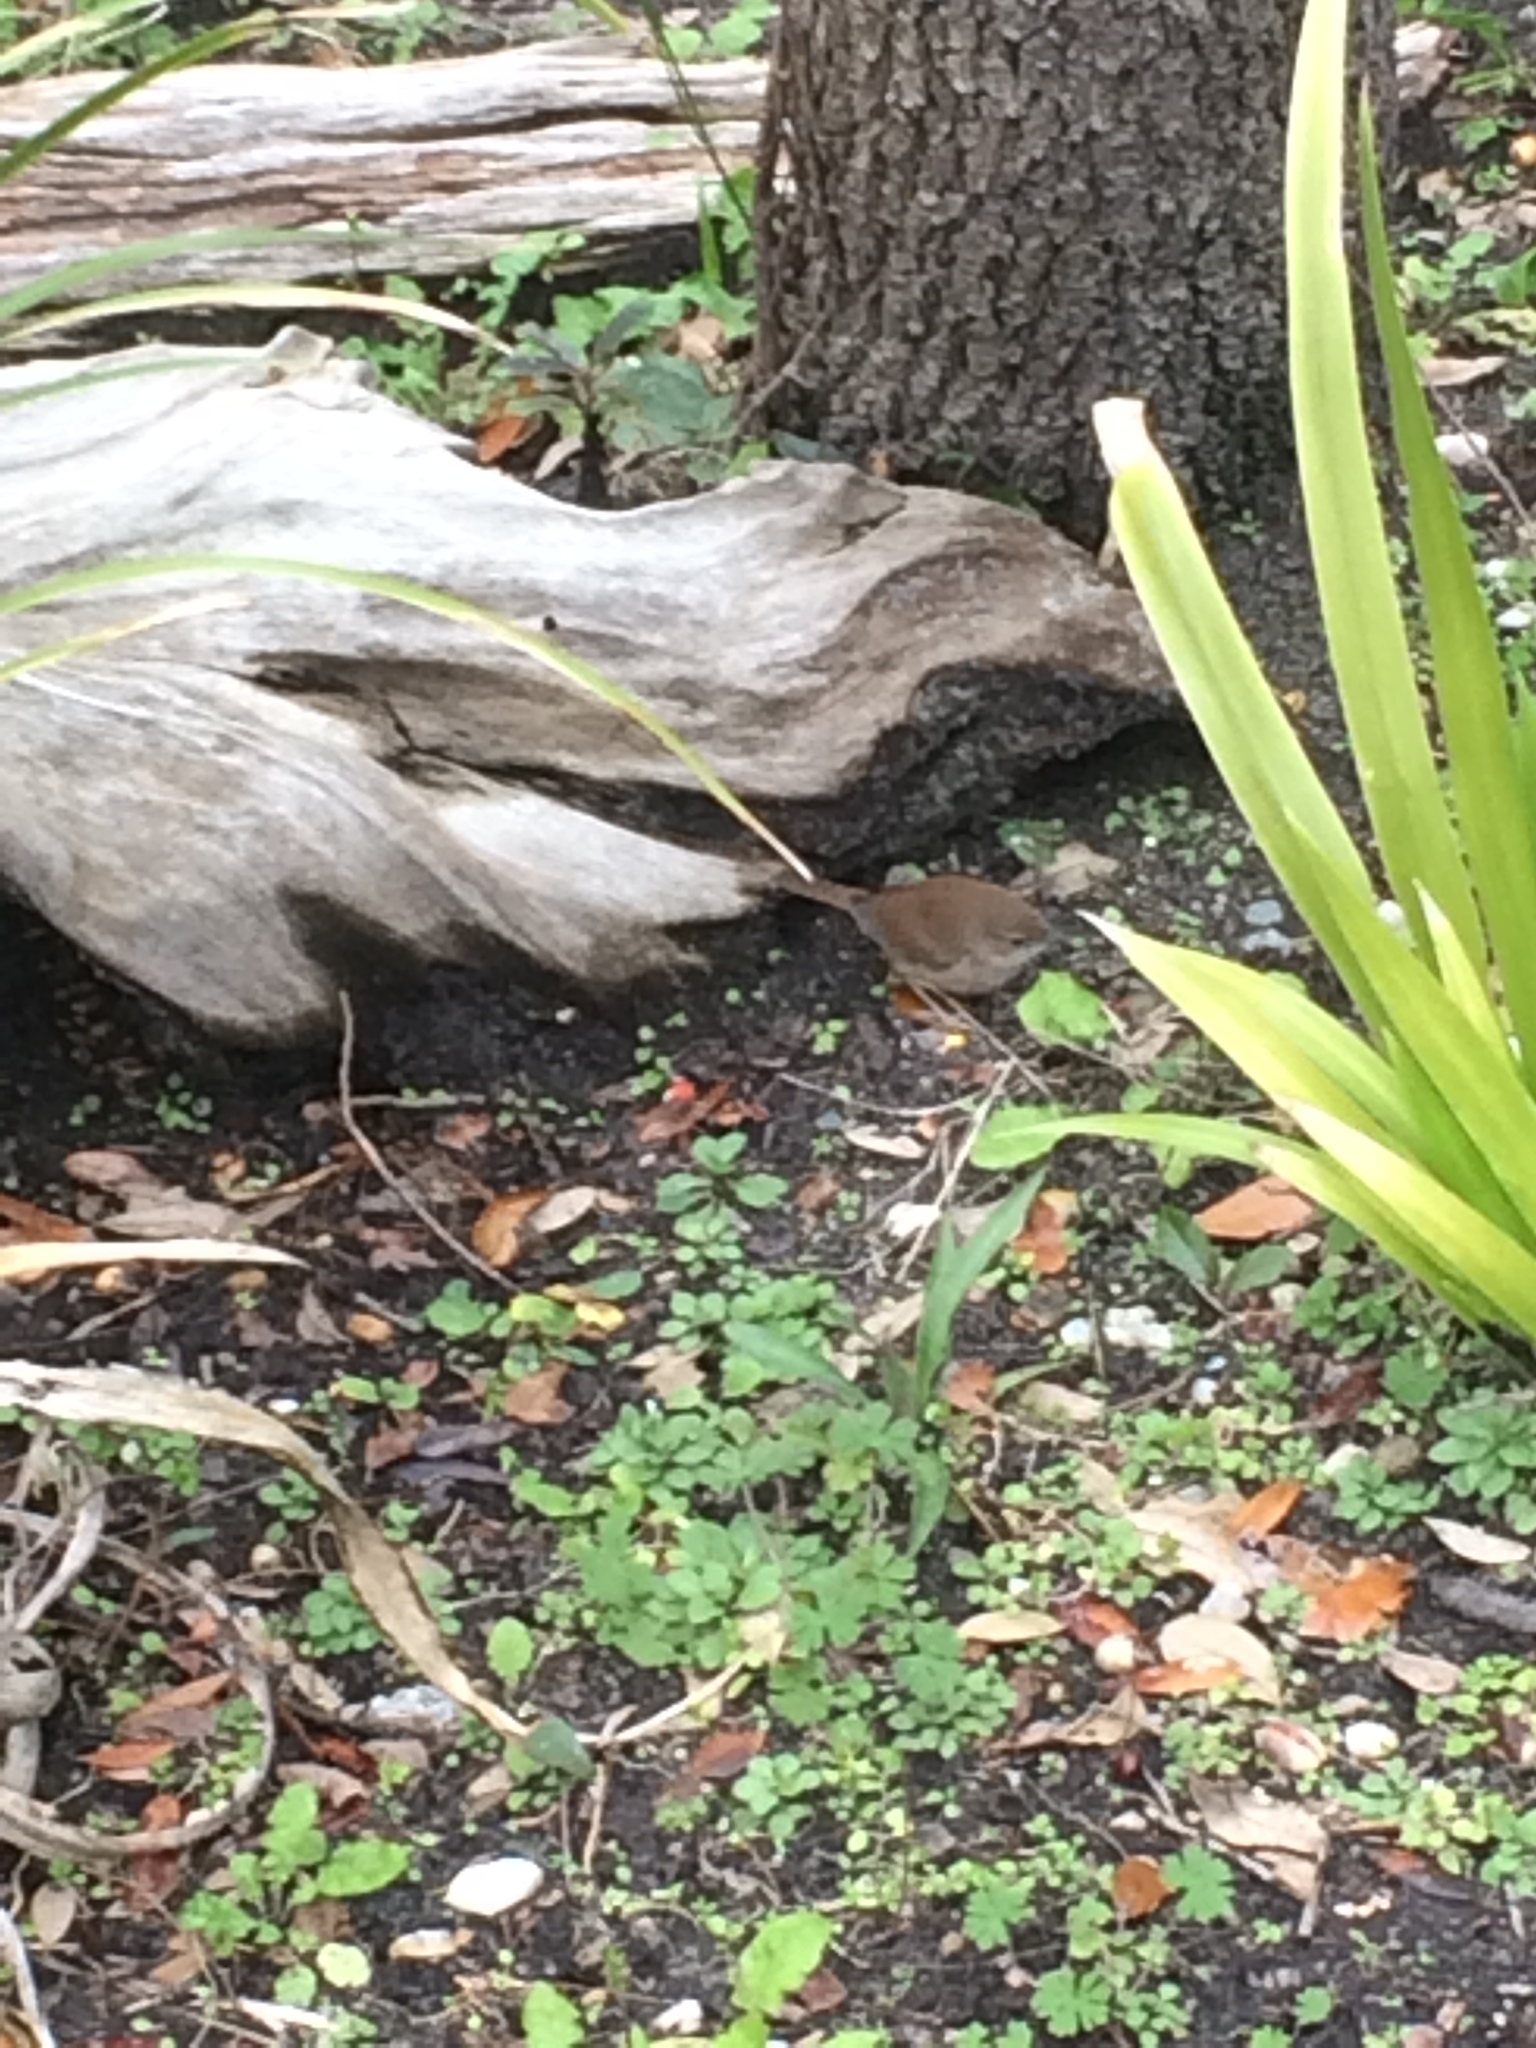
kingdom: Animalia
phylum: Chordata
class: Aves
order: Passeriformes
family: Troglodytidae
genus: Troglodytes
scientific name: Troglodytes aedon
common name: House wren
